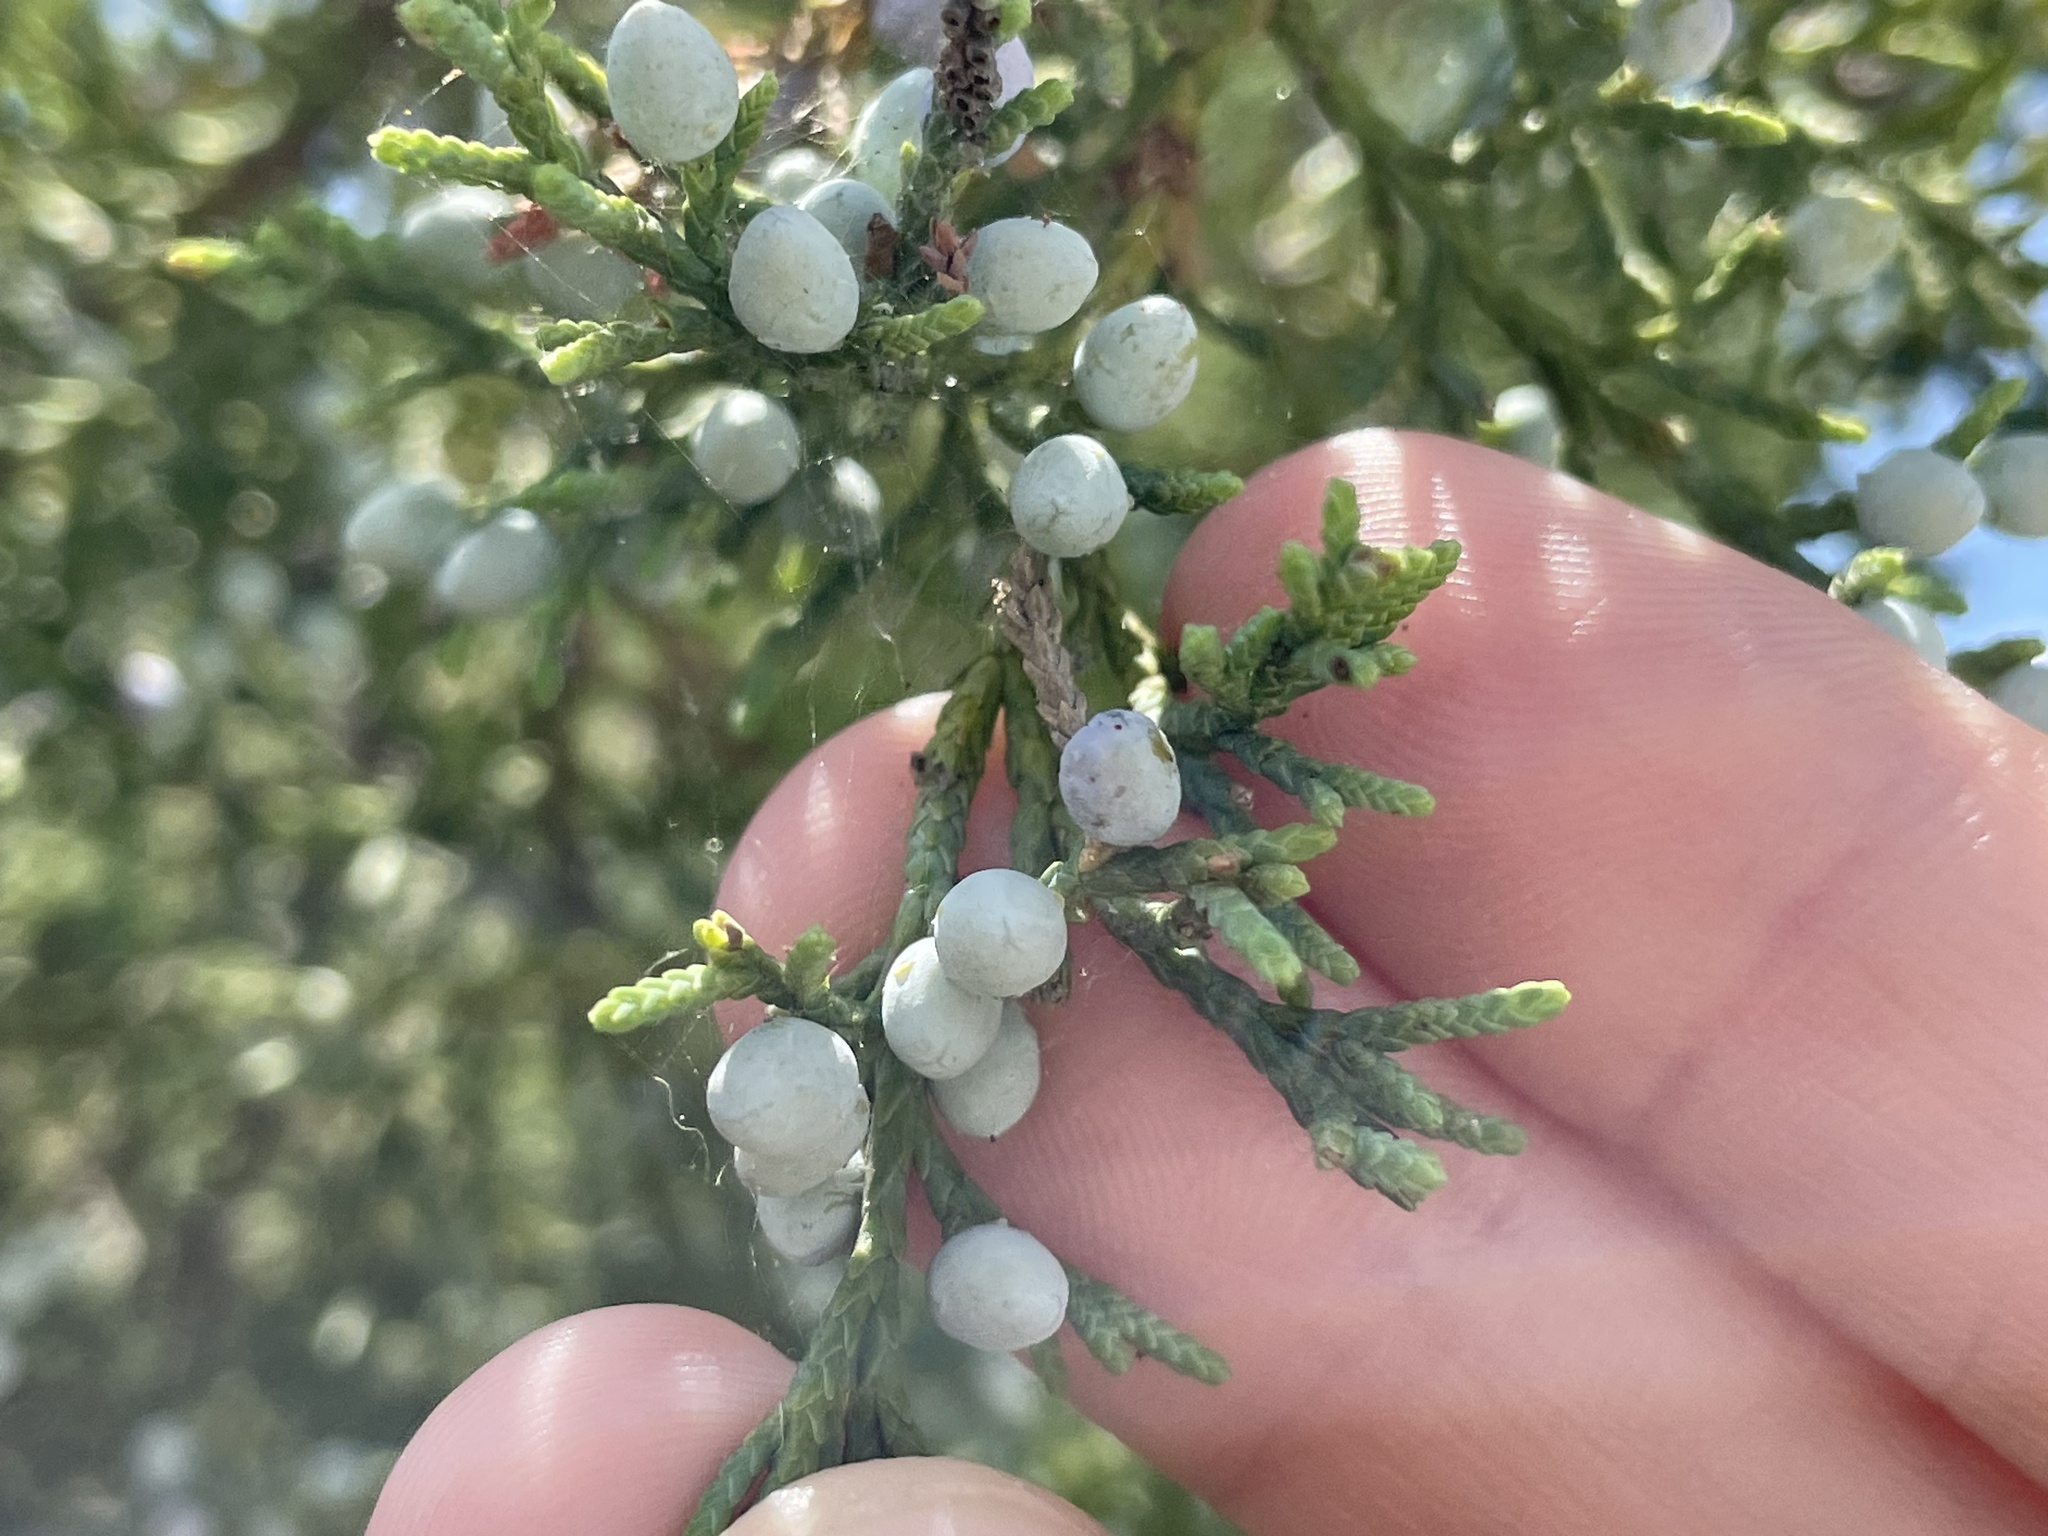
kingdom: Plantae
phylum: Tracheophyta
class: Pinopsida
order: Pinales
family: Cupressaceae
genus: Juniperus
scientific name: Juniperus virginiana
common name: Red juniper
